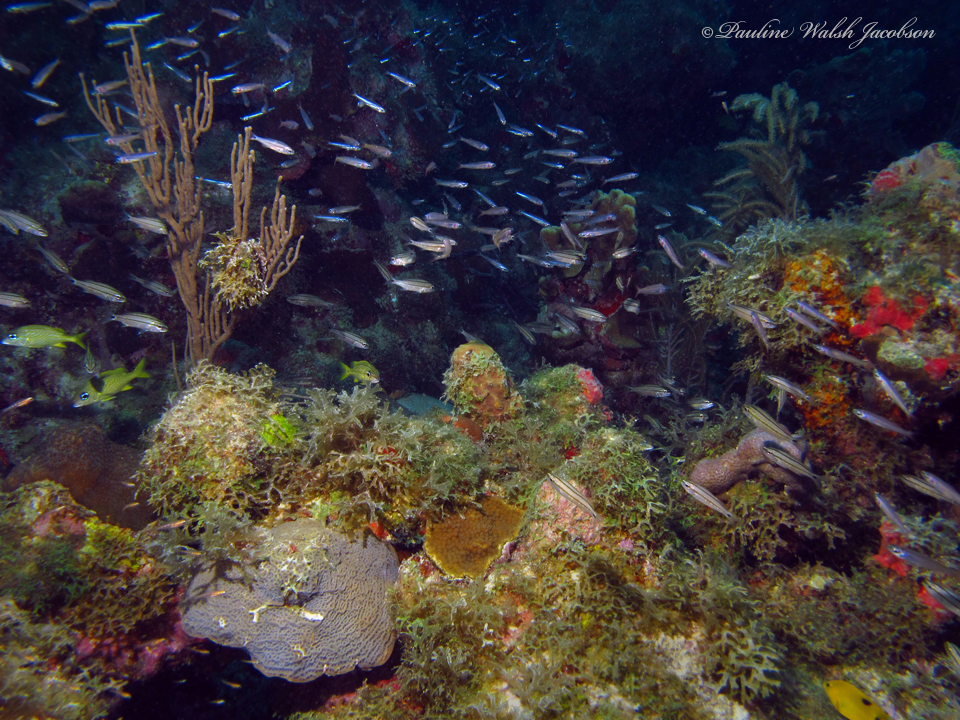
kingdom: Animalia
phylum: Chordata
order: Perciformes
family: Haemulidae
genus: Haemulon
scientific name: Haemulon flavolineatum
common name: French grunt
